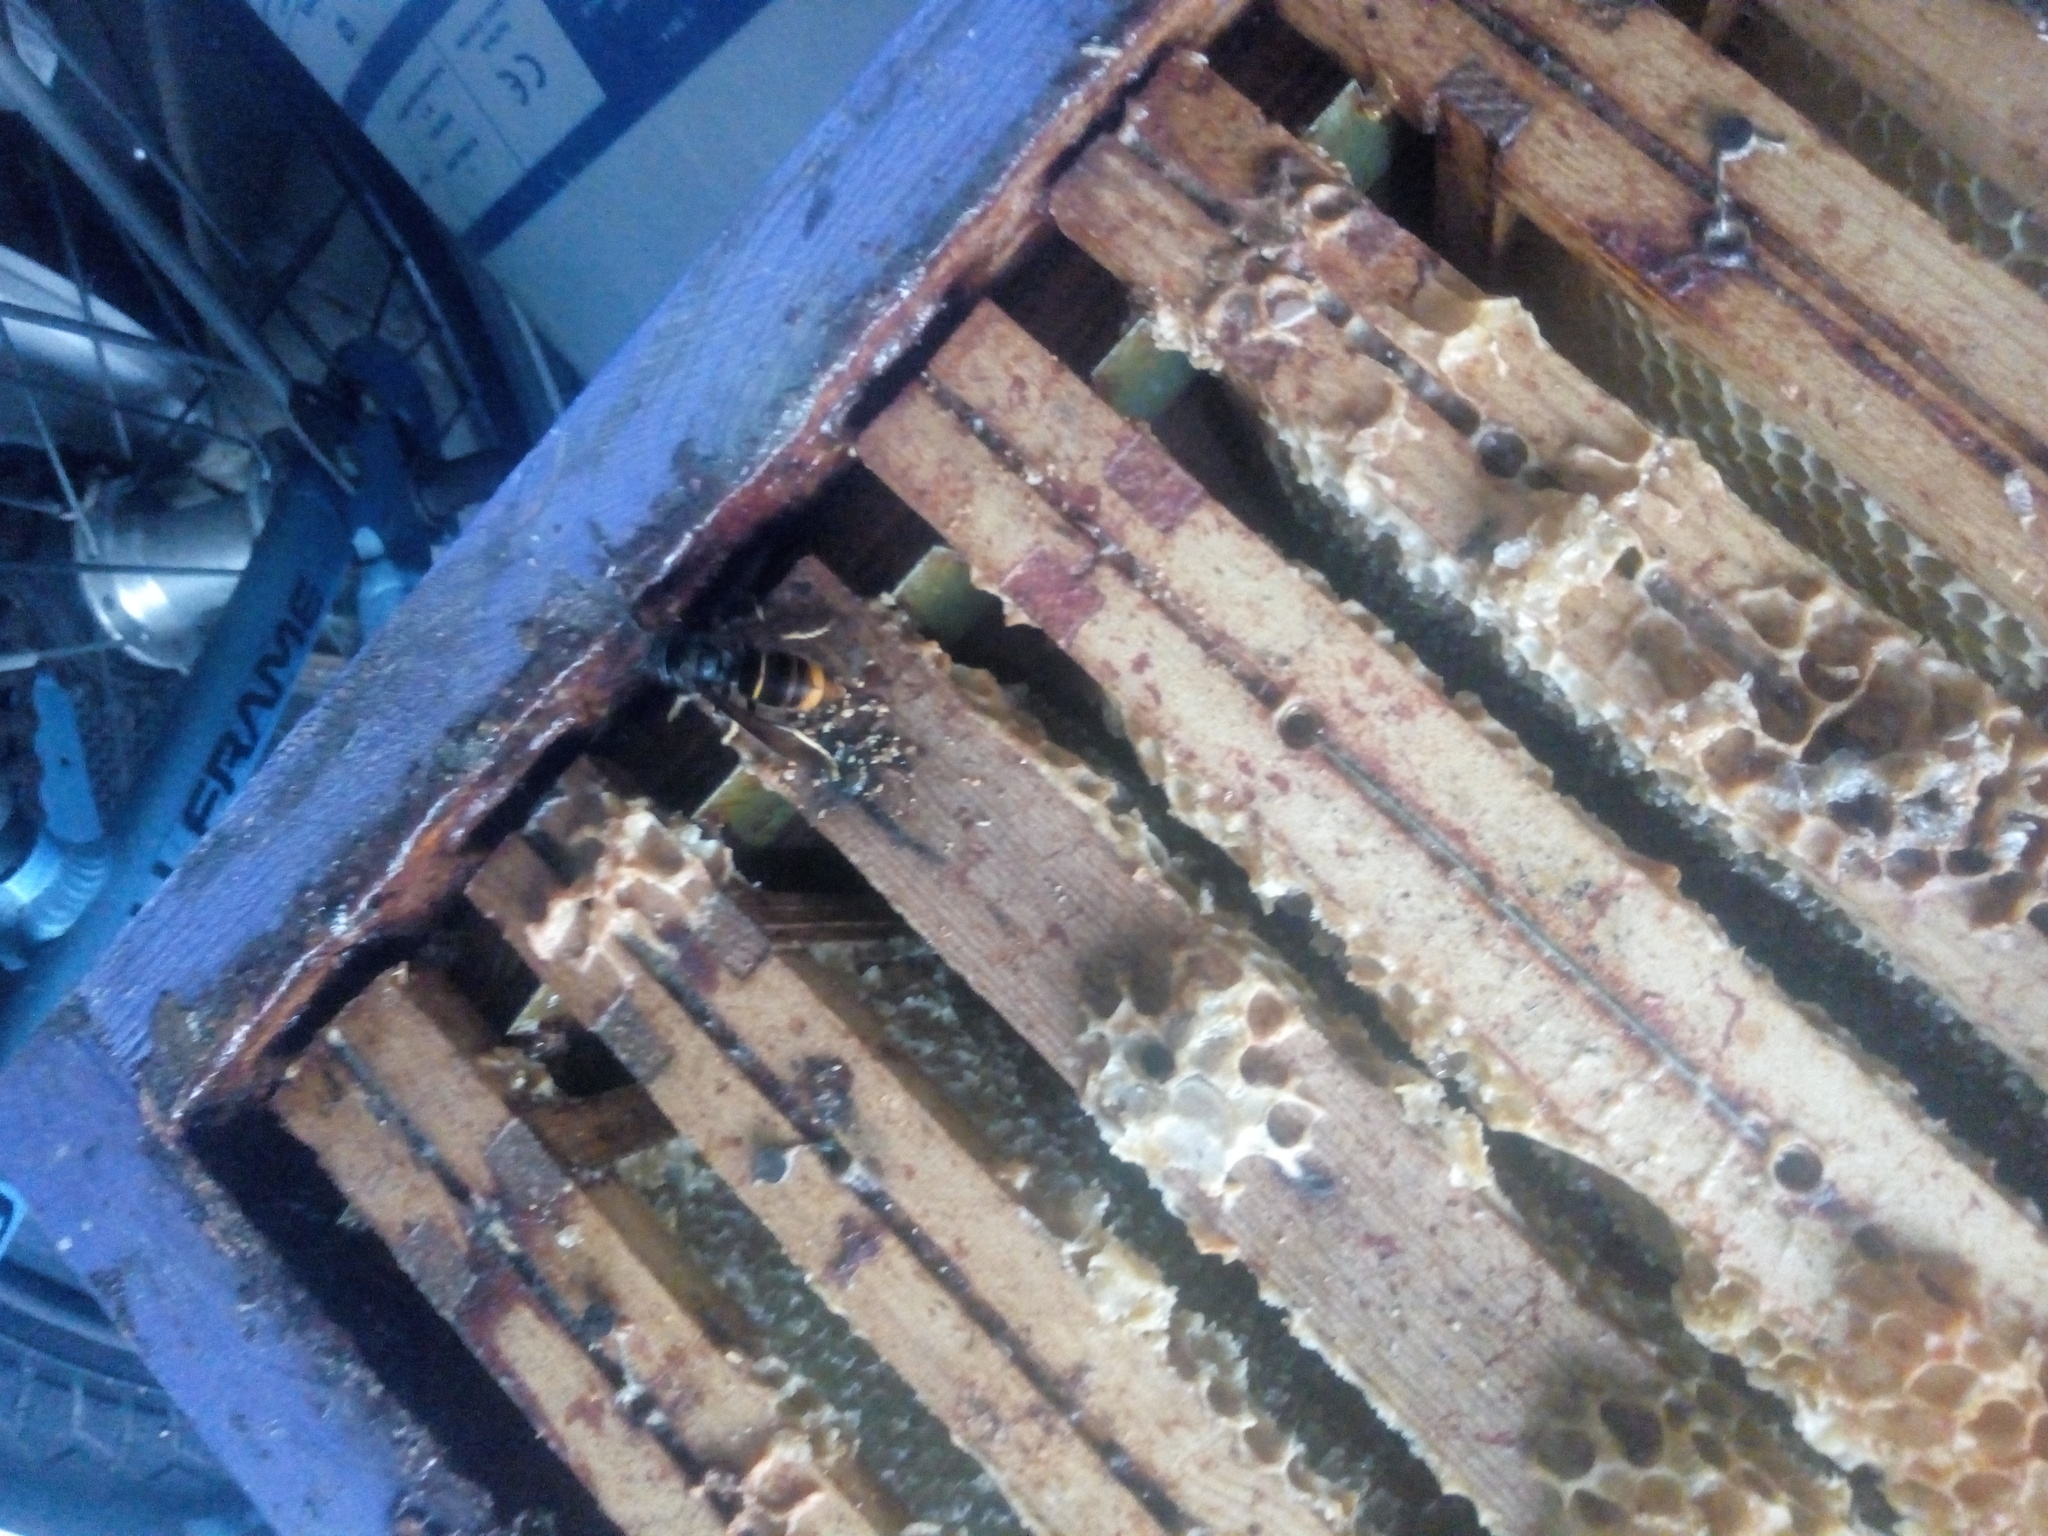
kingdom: Animalia
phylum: Arthropoda
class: Insecta
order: Hymenoptera
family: Vespidae
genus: Vespa
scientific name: Vespa velutina
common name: Asian hornet
